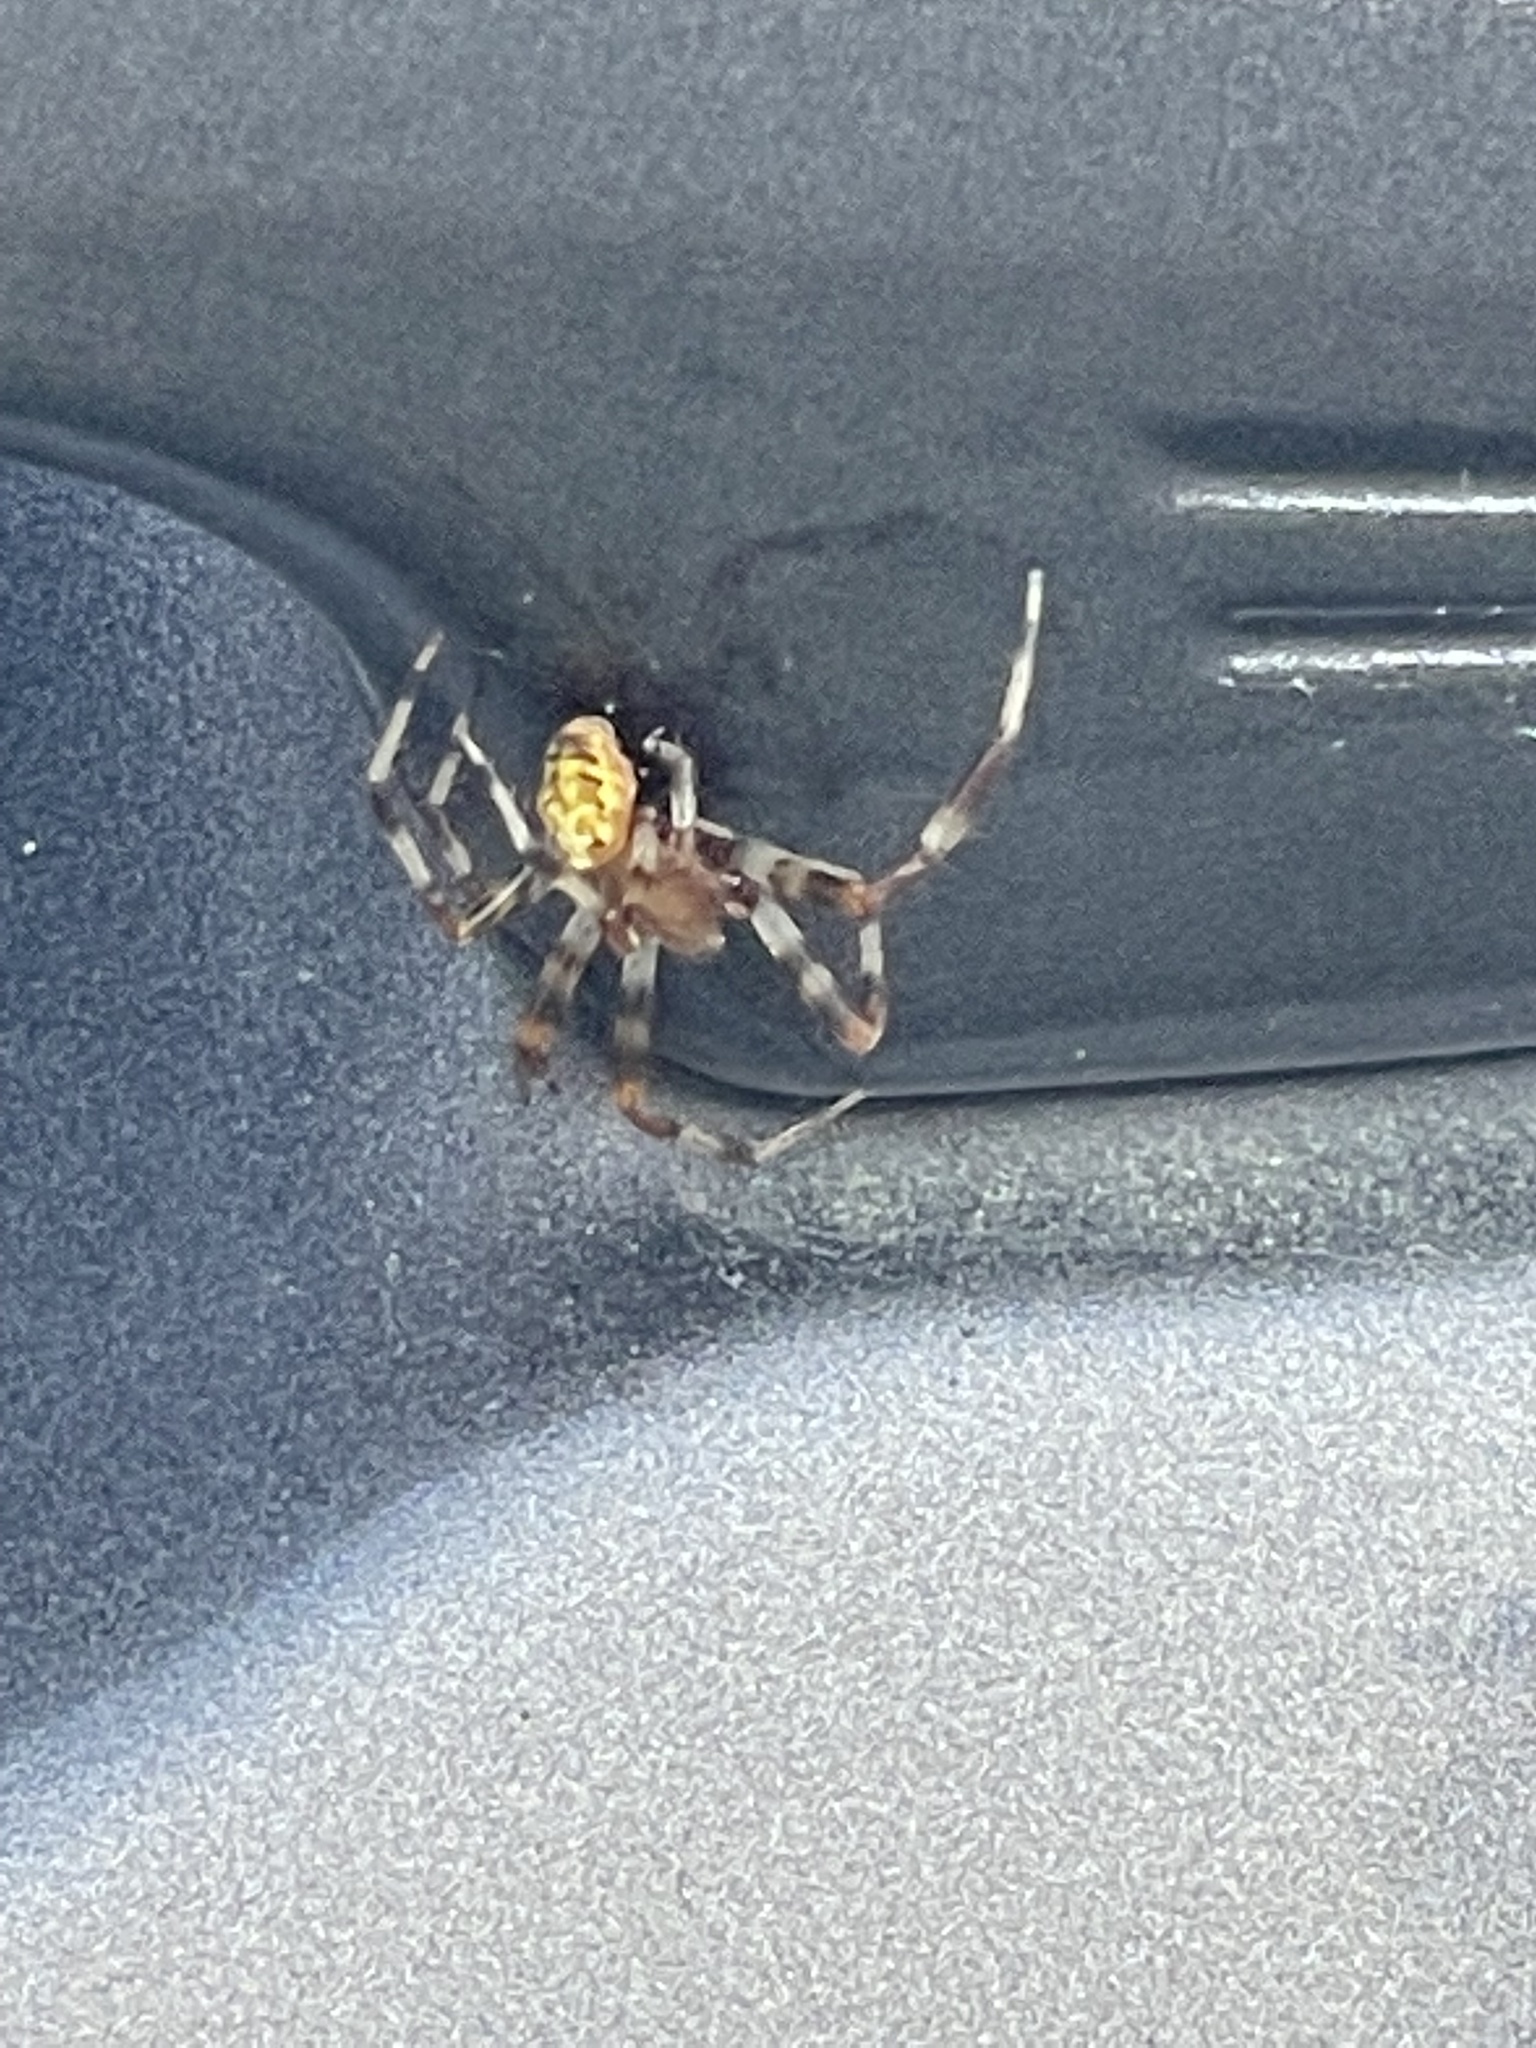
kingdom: Animalia
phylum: Arthropoda
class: Arachnida
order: Araneae
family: Araneidae
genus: Araneus
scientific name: Araneus marmoreus
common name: Marbled orbweaver
